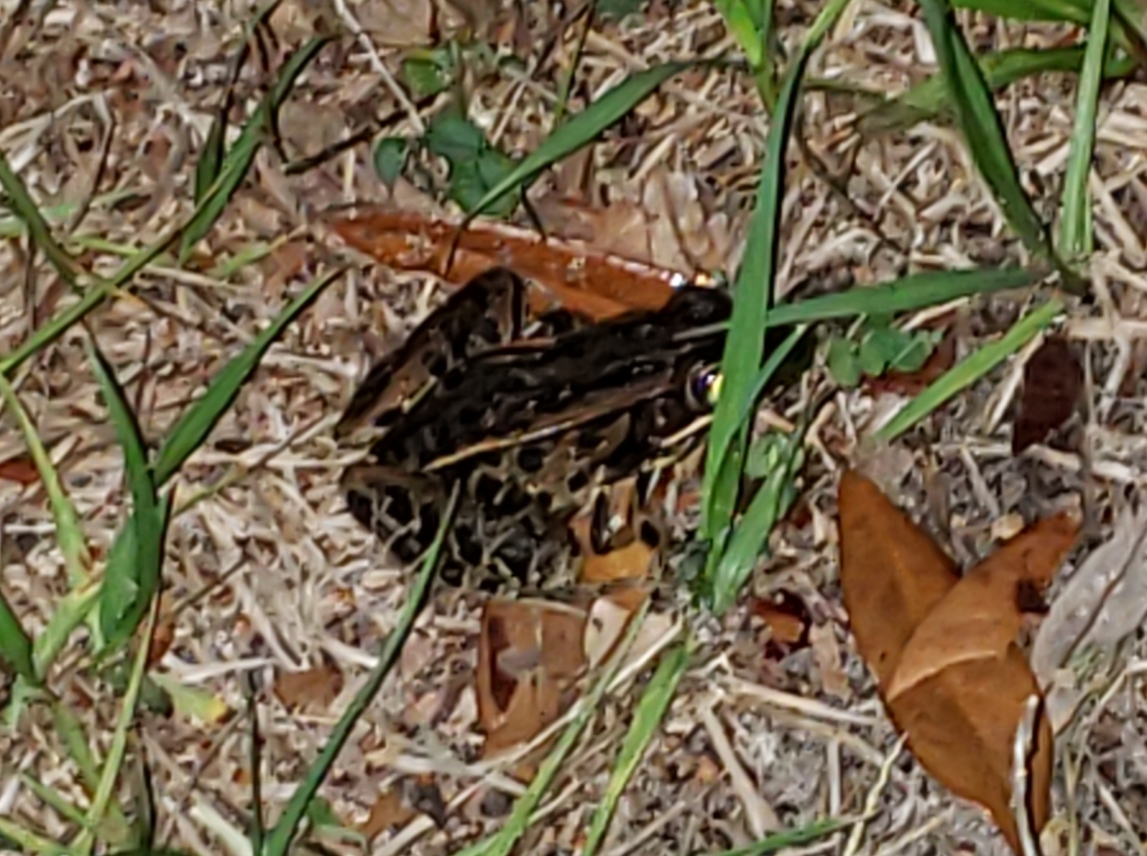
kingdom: Animalia
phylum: Chordata
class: Amphibia
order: Anura
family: Ranidae
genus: Lithobates
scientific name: Lithobates sphenocephalus
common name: Southern leopard frog
